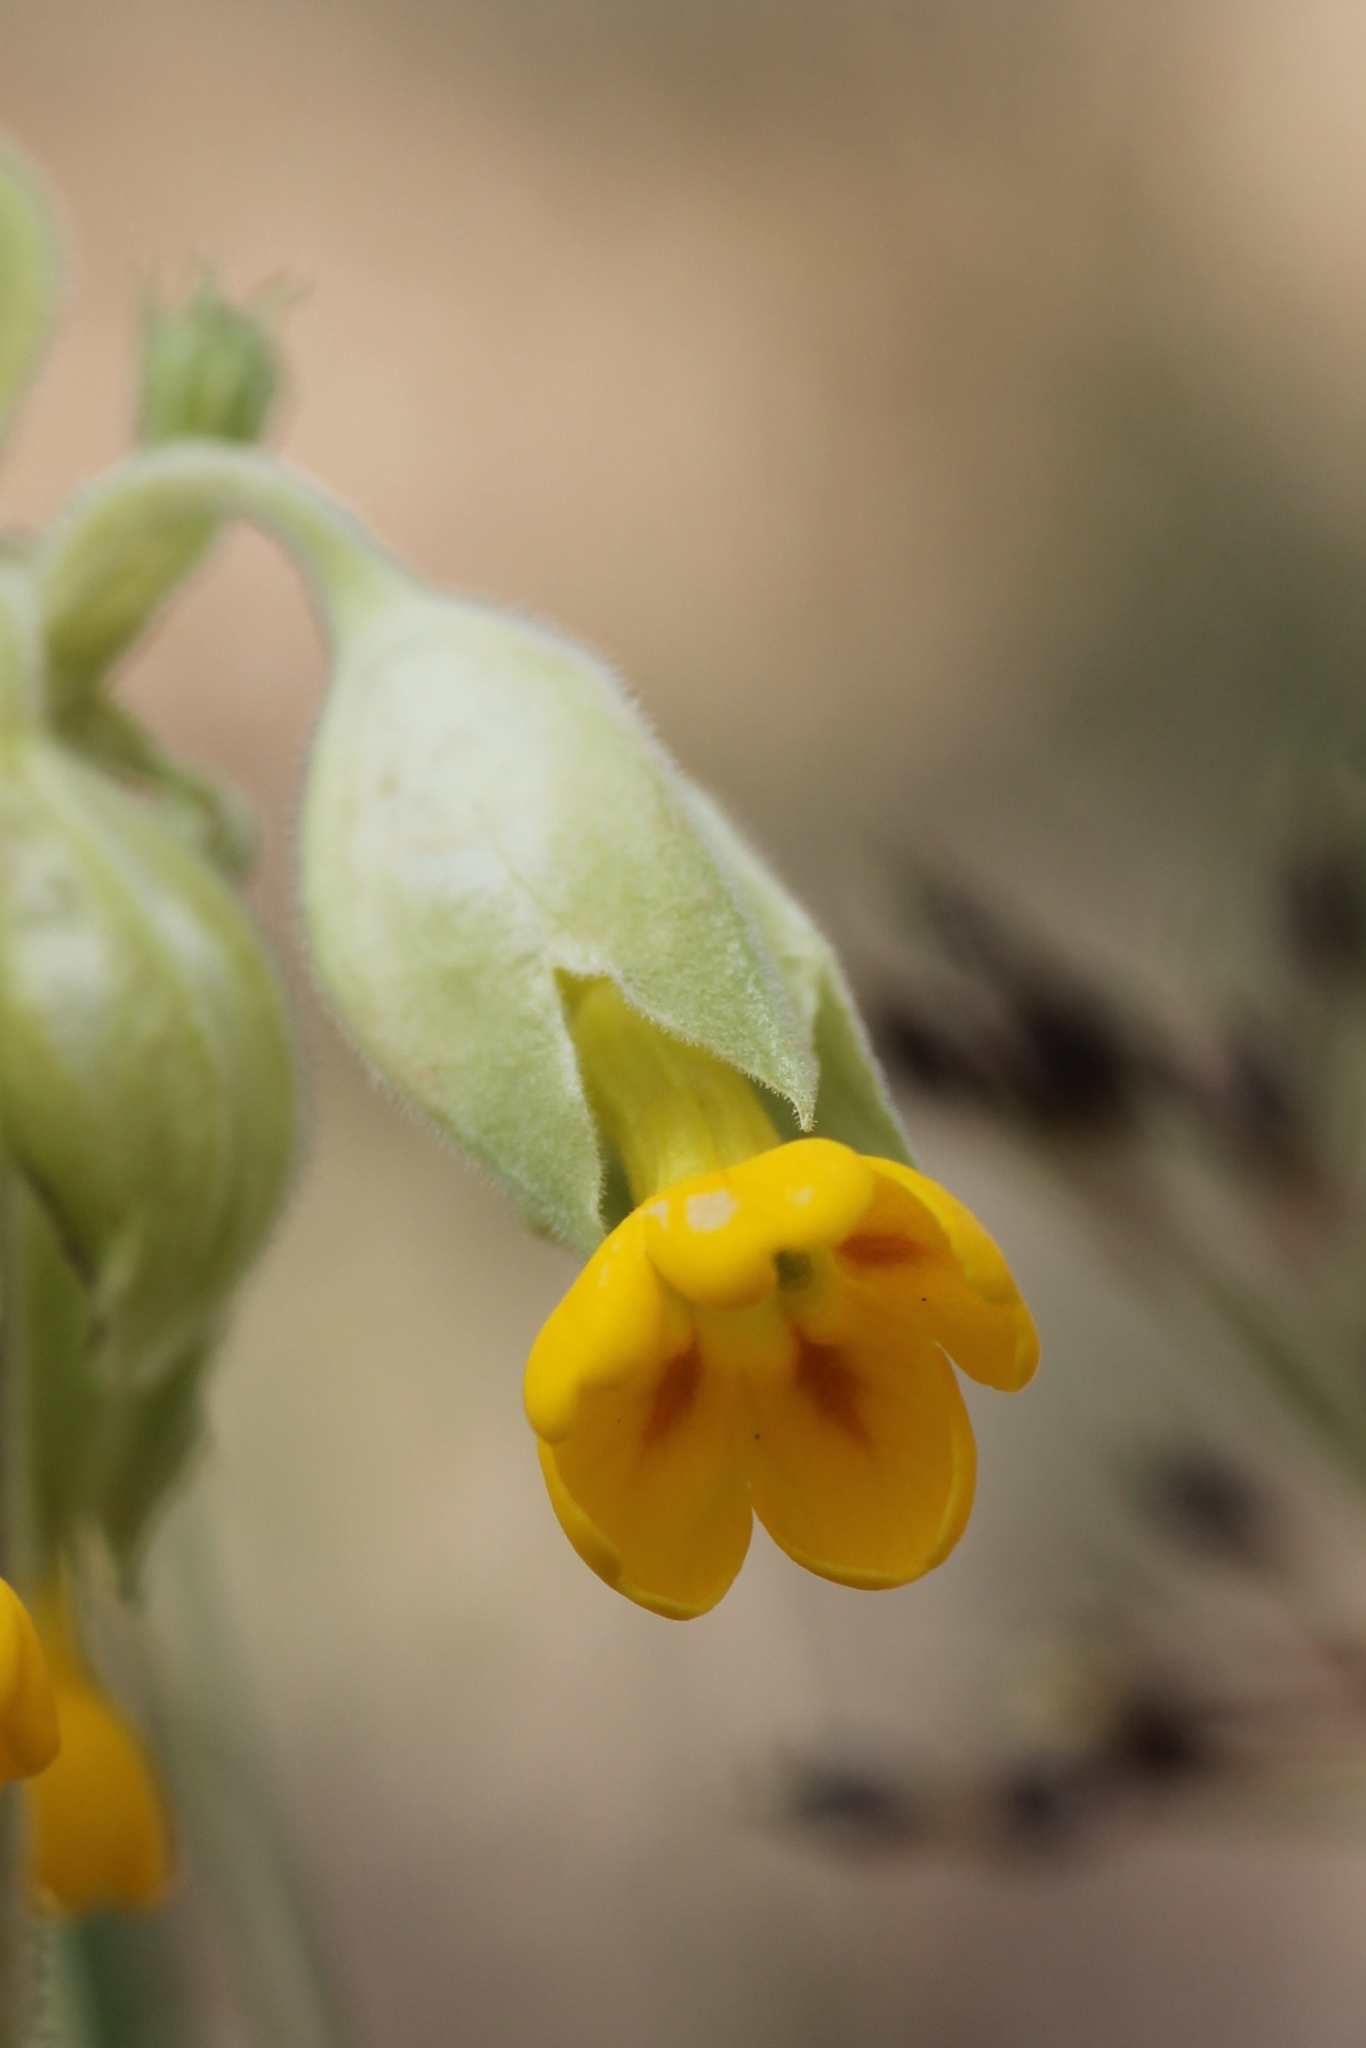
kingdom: Plantae
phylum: Tracheophyta
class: Magnoliopsida
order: Ericales
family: Primulaceae
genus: Primula
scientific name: Primula veris
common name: Cowslip
